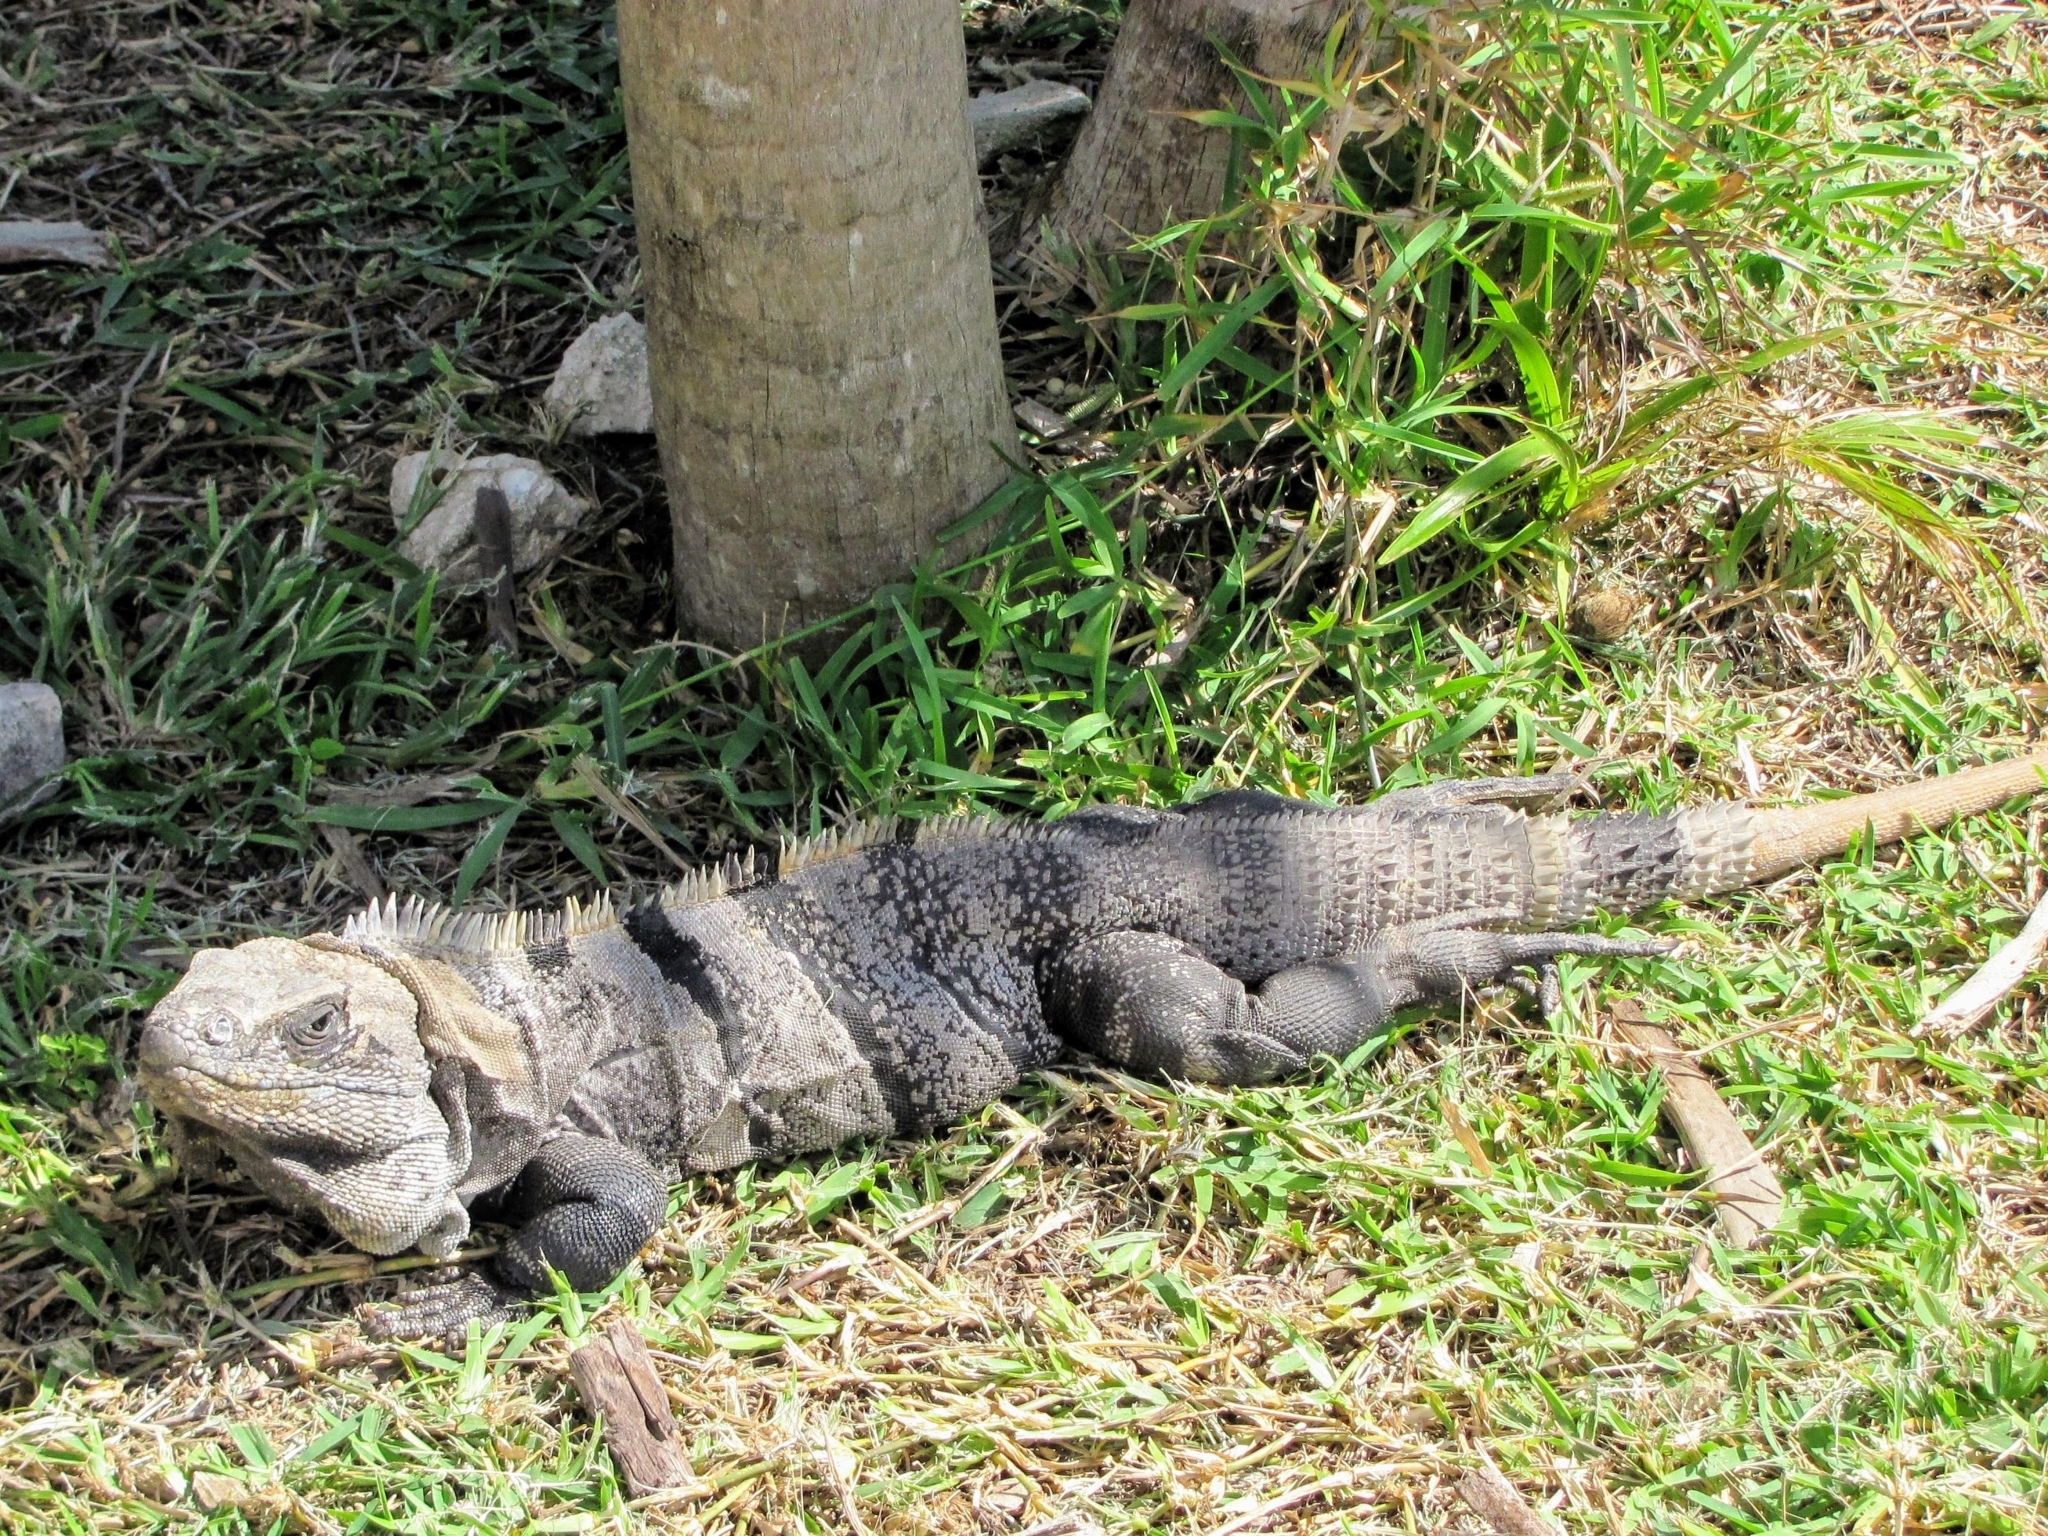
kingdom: Animalia
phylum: Chordata
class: Squamata
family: Iguanidae
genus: Ctenosaura
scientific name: Ctenosaura similis
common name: Black spiny-tailed iguana
